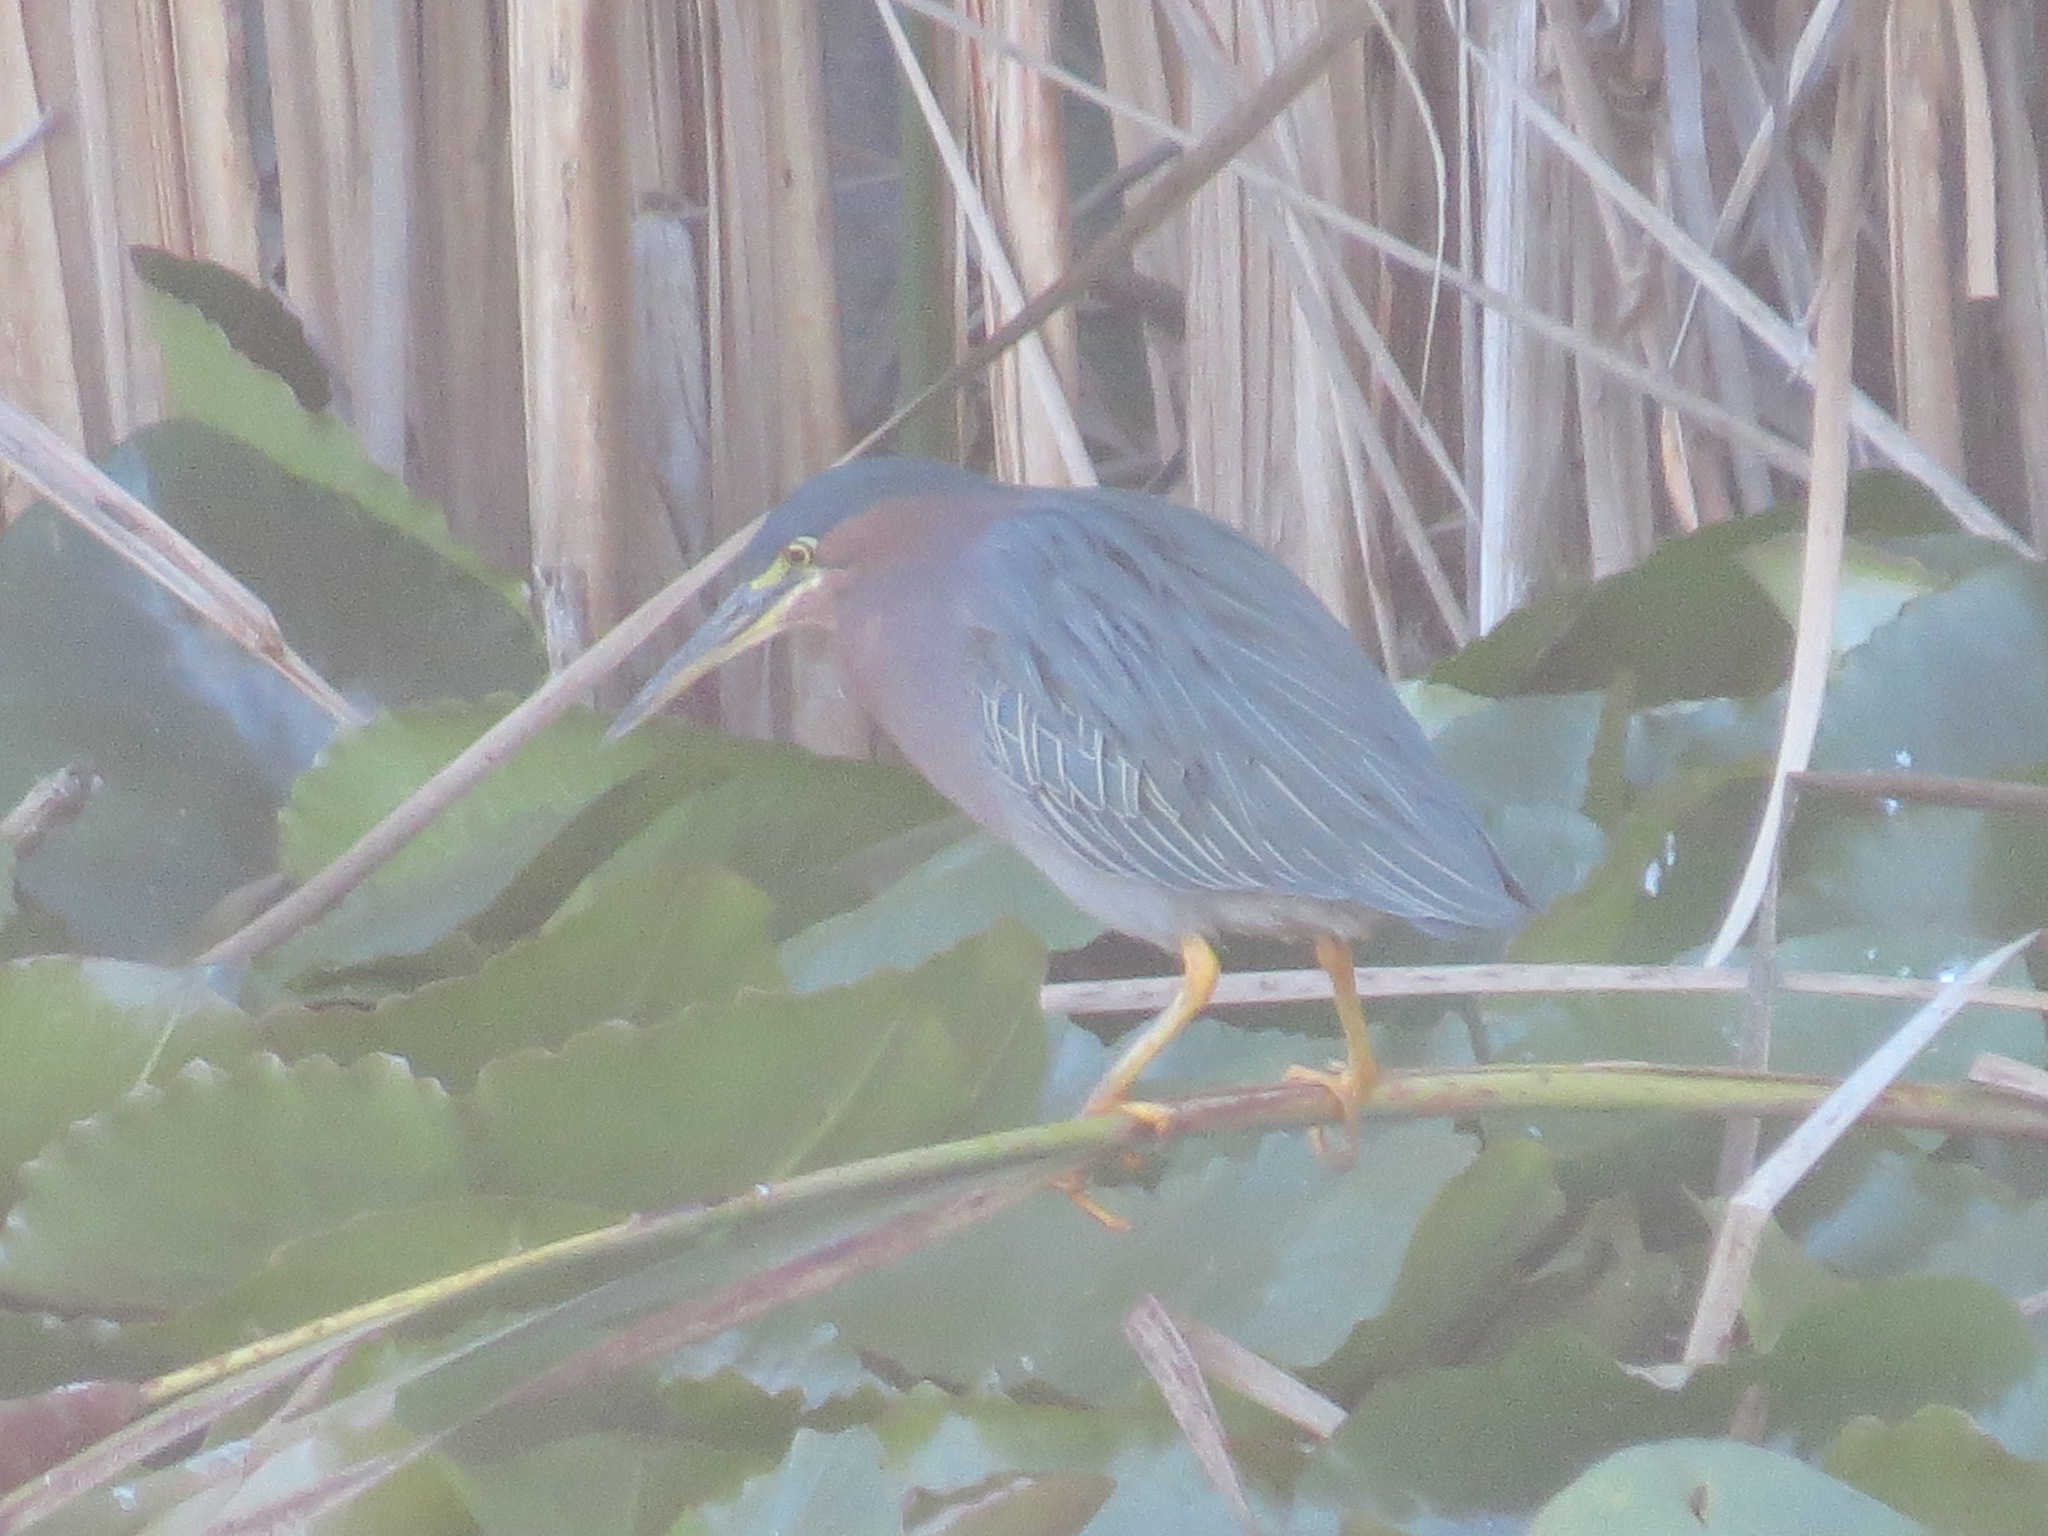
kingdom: Animalia
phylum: Chordata
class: Aves
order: Pelecaniformes
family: Ardeidae
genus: Butorides
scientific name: Butorides virescens
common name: Green heron
